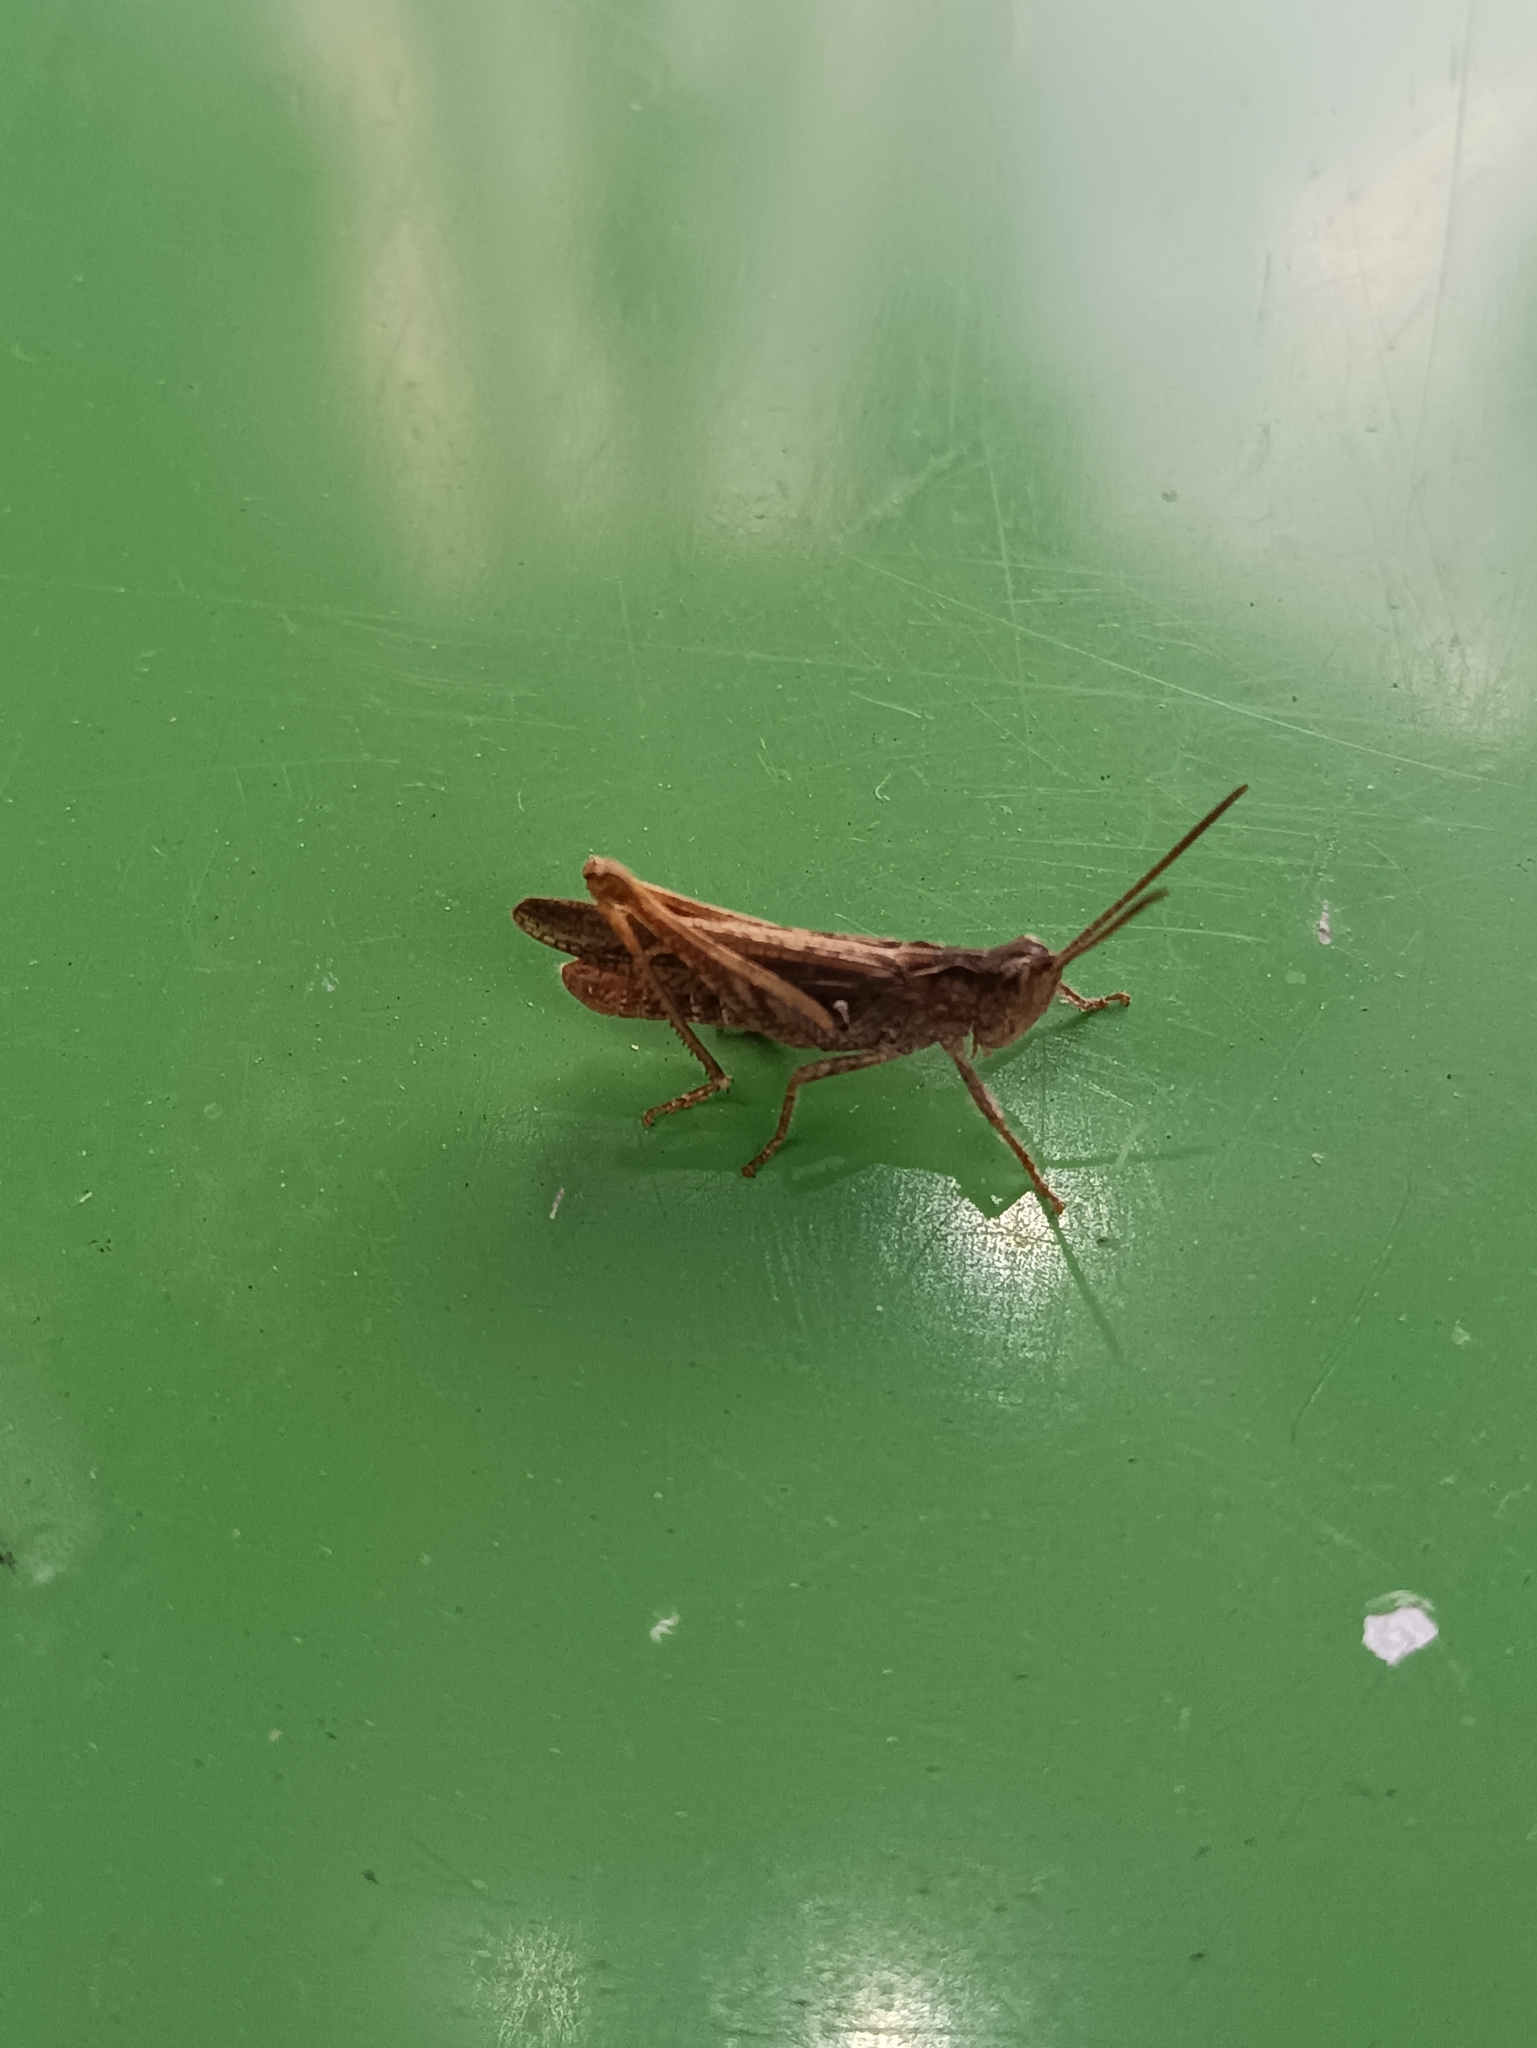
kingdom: Animalia
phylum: Arthropoda
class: Insecta
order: Orthoptera
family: Acrididae
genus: Chorthippus
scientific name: Chorthippus brunneus
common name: Field grasshopper
